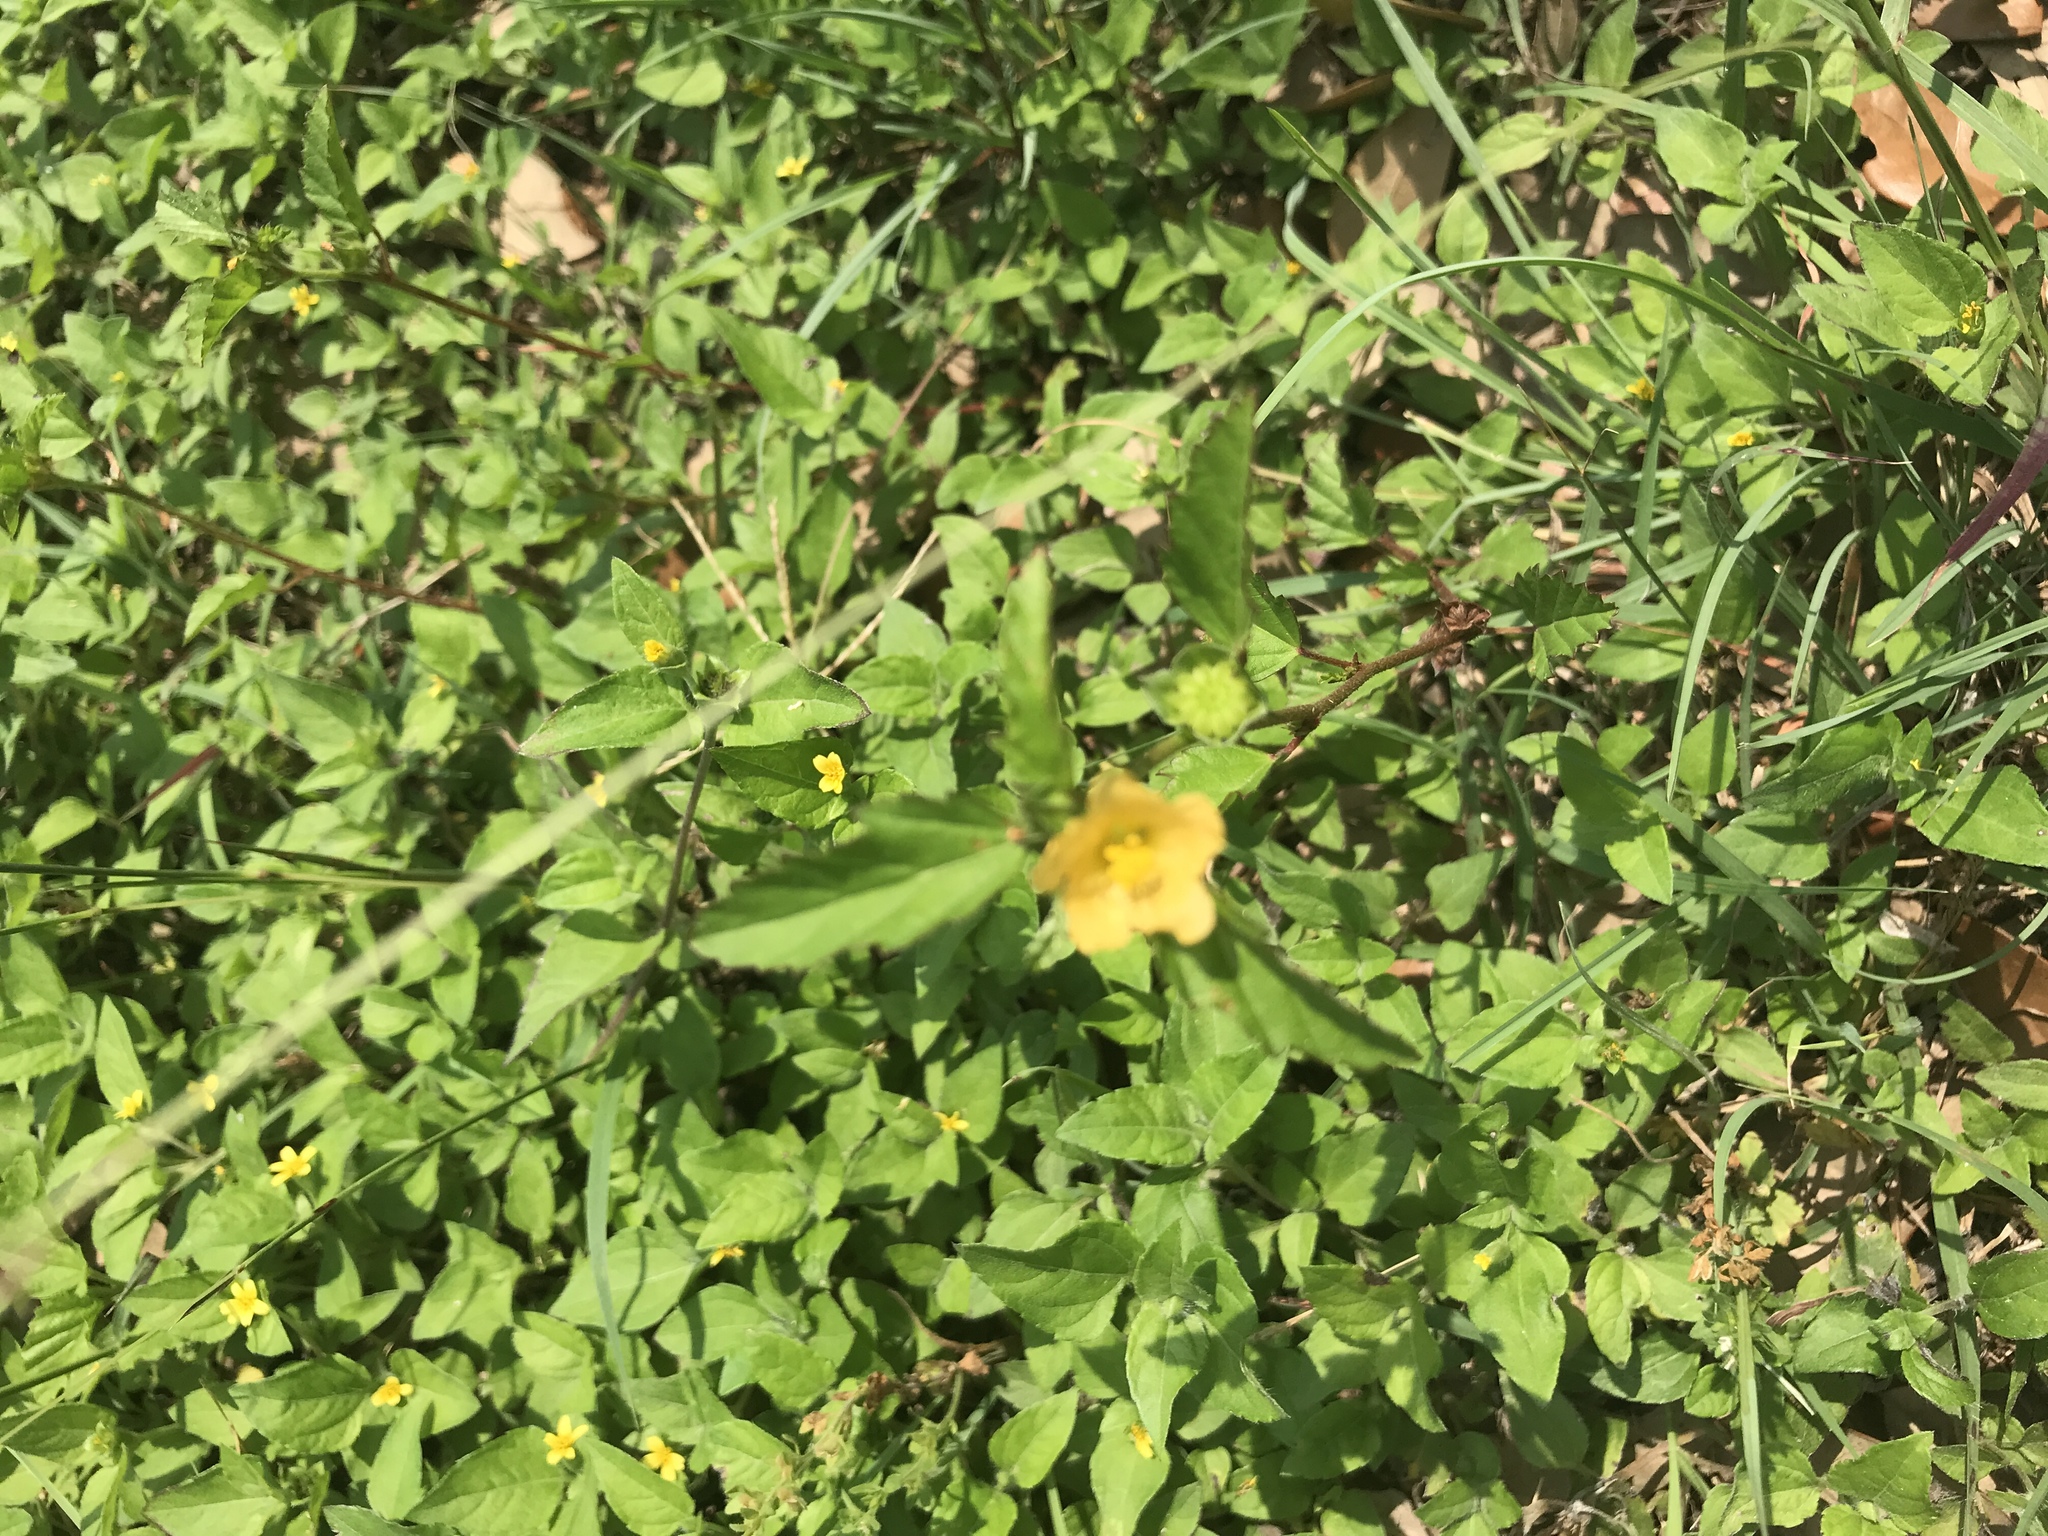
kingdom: Plantae
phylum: Tracheophyta
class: Magnoliopsida
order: Malvales
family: Malvaceae
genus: Malvastrum
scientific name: Malvastrum coromandelianum
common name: Threelobe false mallow
